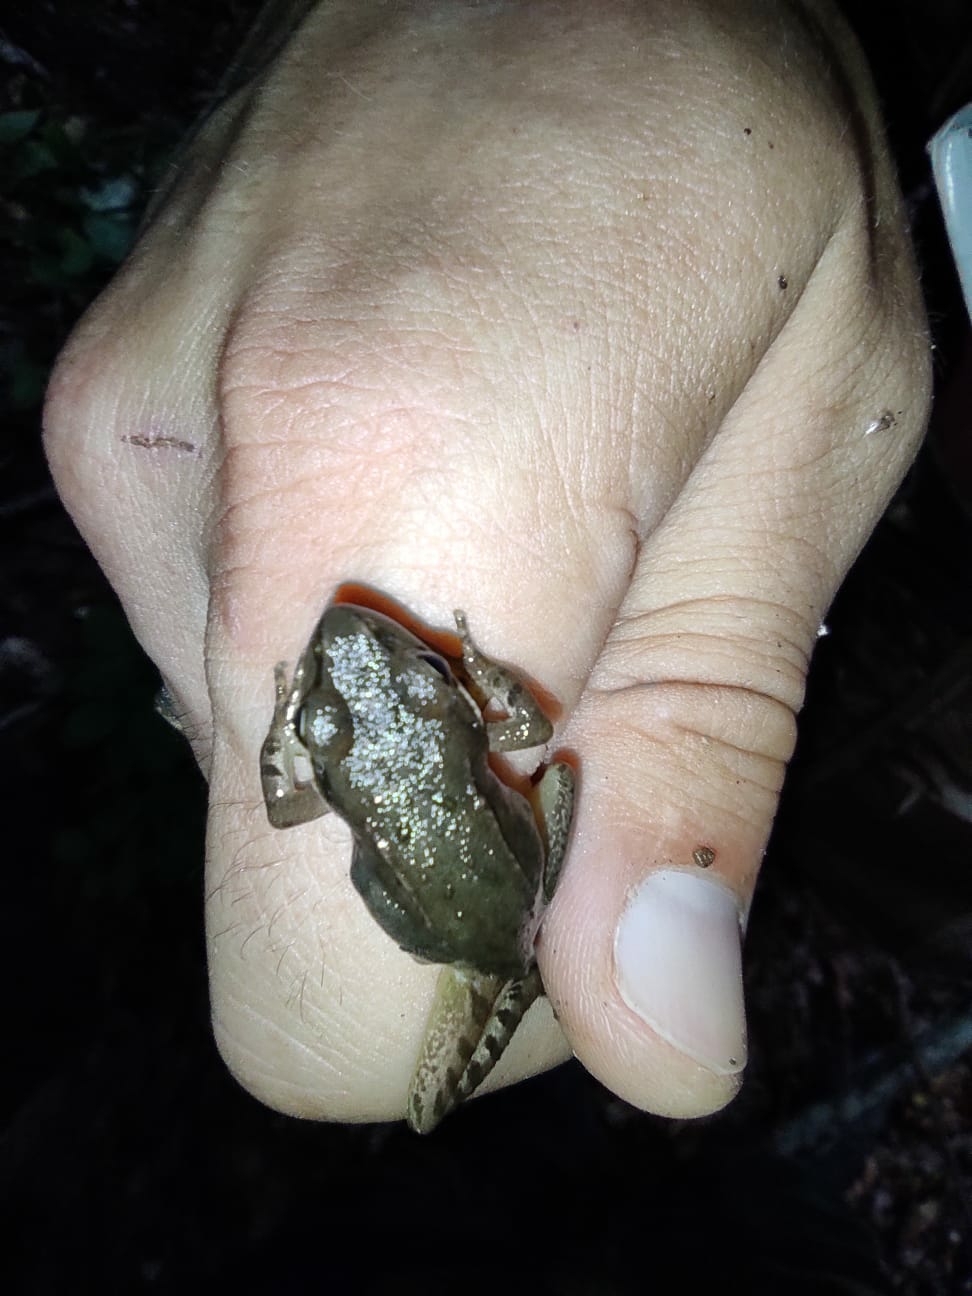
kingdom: Animalia
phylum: Chordata
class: Amphibia
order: Anura
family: Ranidae
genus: Rana
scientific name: Rana macrocnemis
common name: Banded frog
